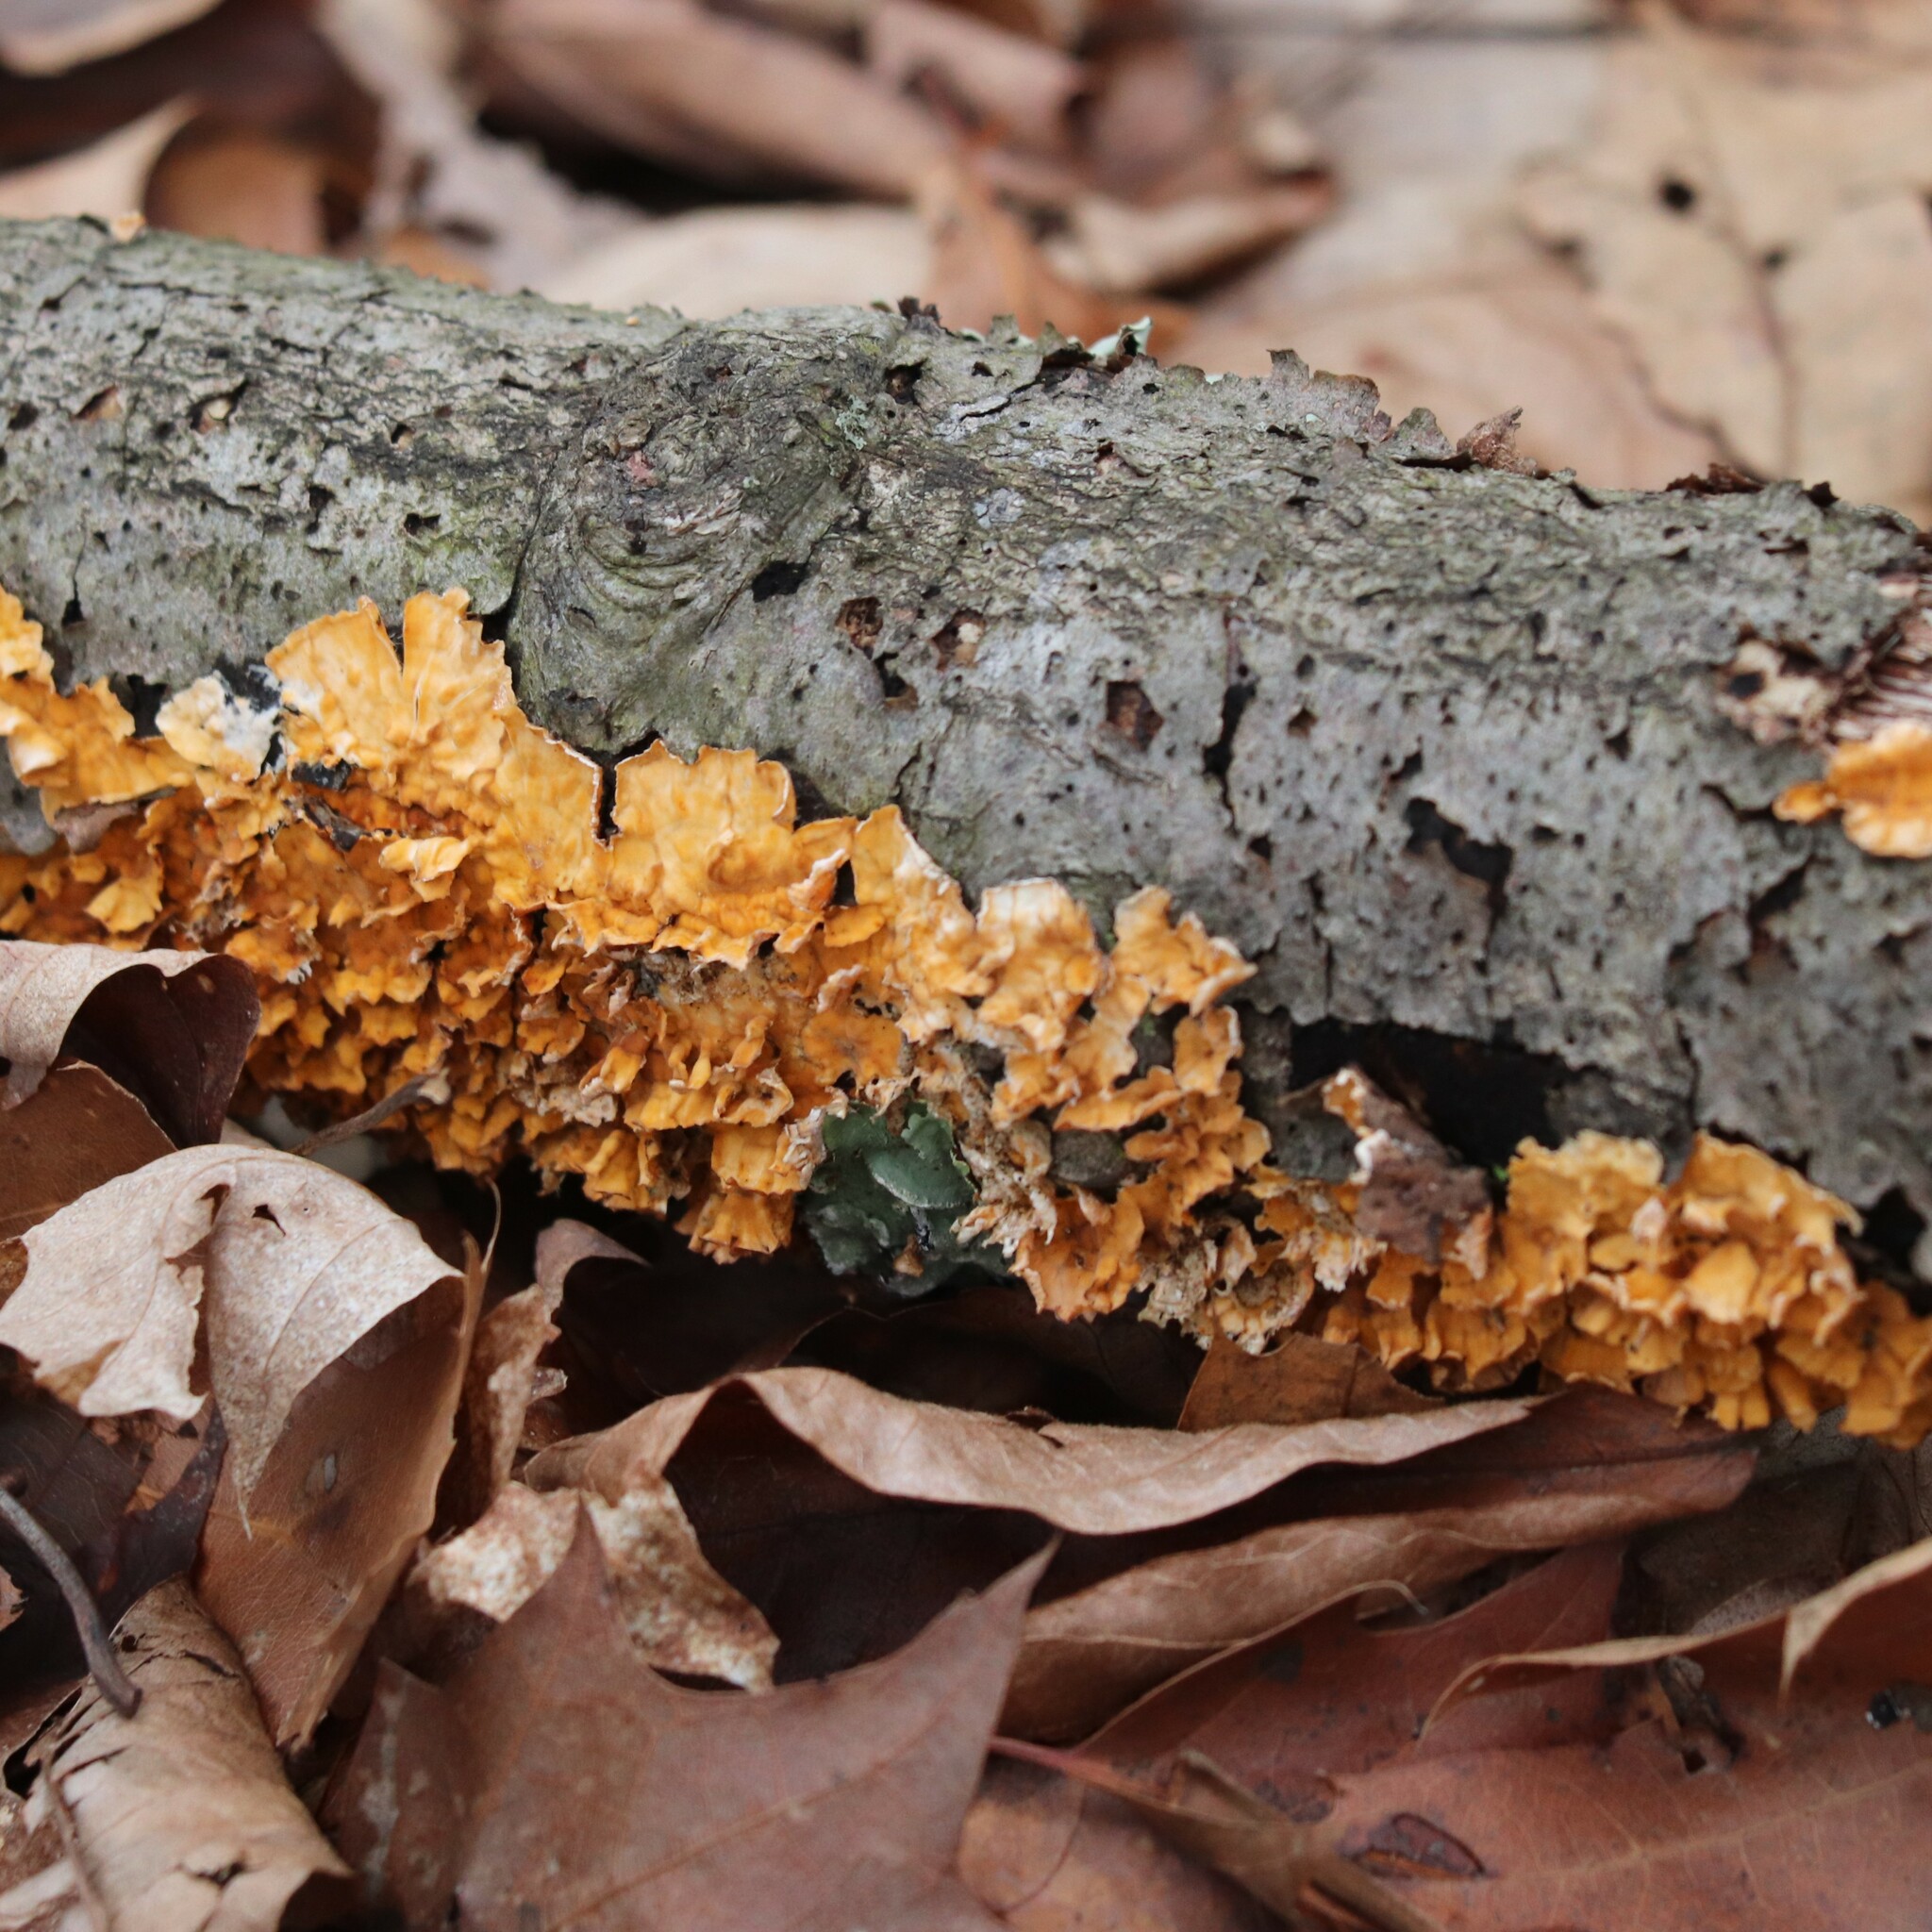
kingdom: Fungi
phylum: Basidiomycota
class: Agaricomycetes
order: Russulales
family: Stereaceae
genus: Stereum
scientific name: Stereum complicatum
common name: Crowded parchment
